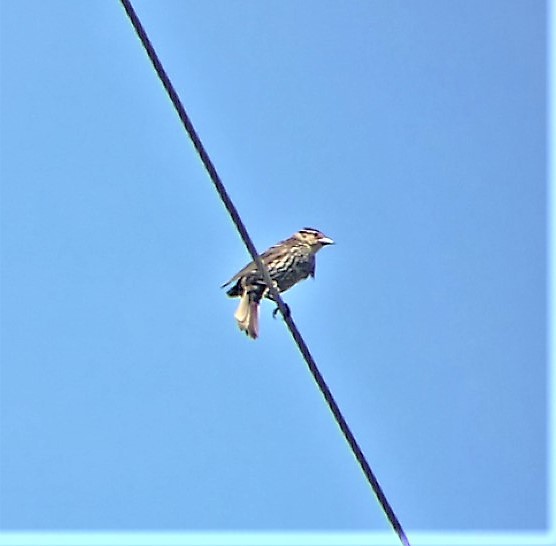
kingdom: Animalia
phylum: Chordata
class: Aves
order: Passeriformes
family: Icteridae
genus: Agelaius
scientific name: Agelaius phoeniceus
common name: Red-winged blackbird
